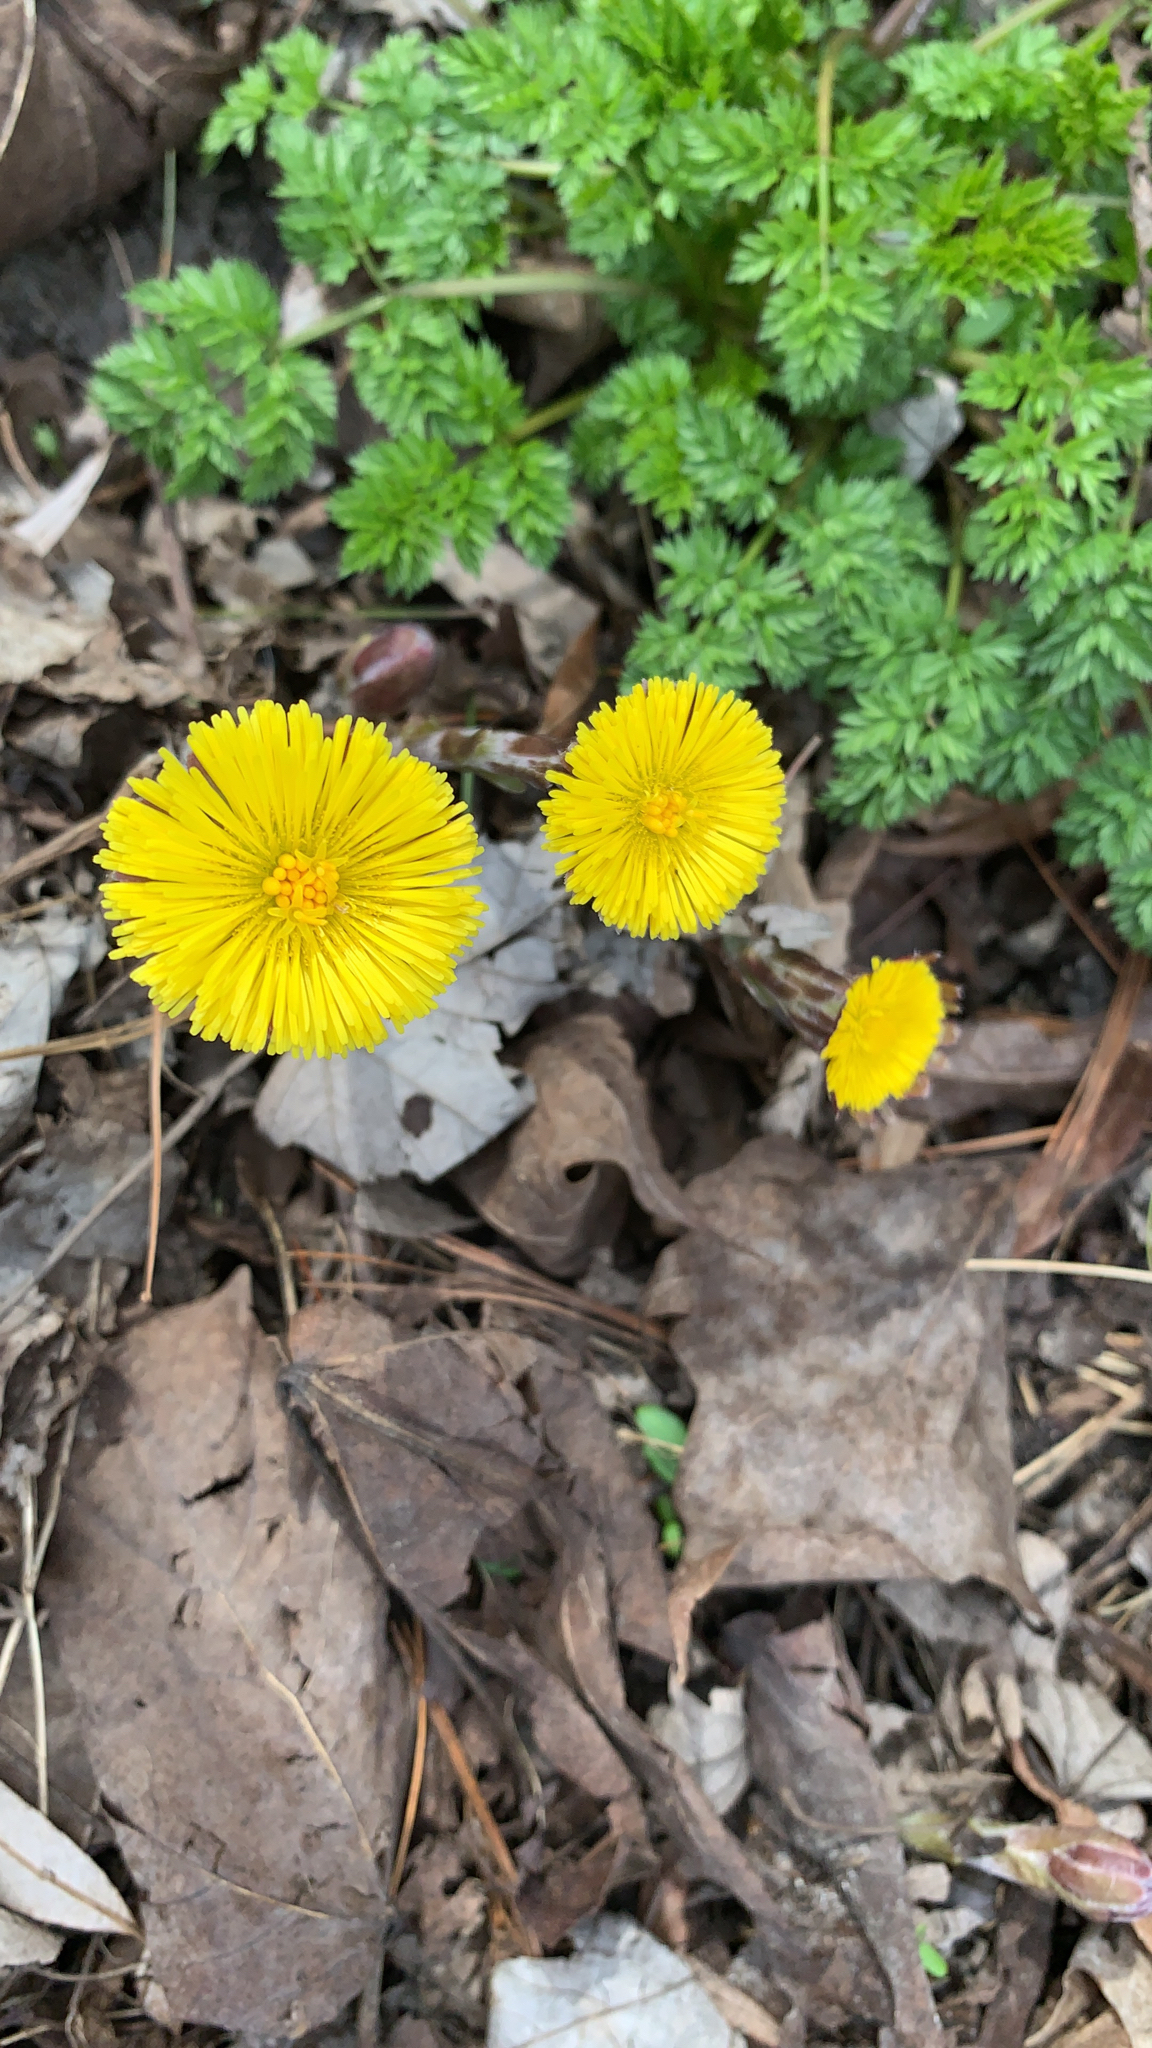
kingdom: Plantae
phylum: Tracheophyta
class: Magnoliopsida
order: Asterales
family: Asteraceae
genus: Tussilago
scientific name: Tussilago farfara
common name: Coltsfoot
